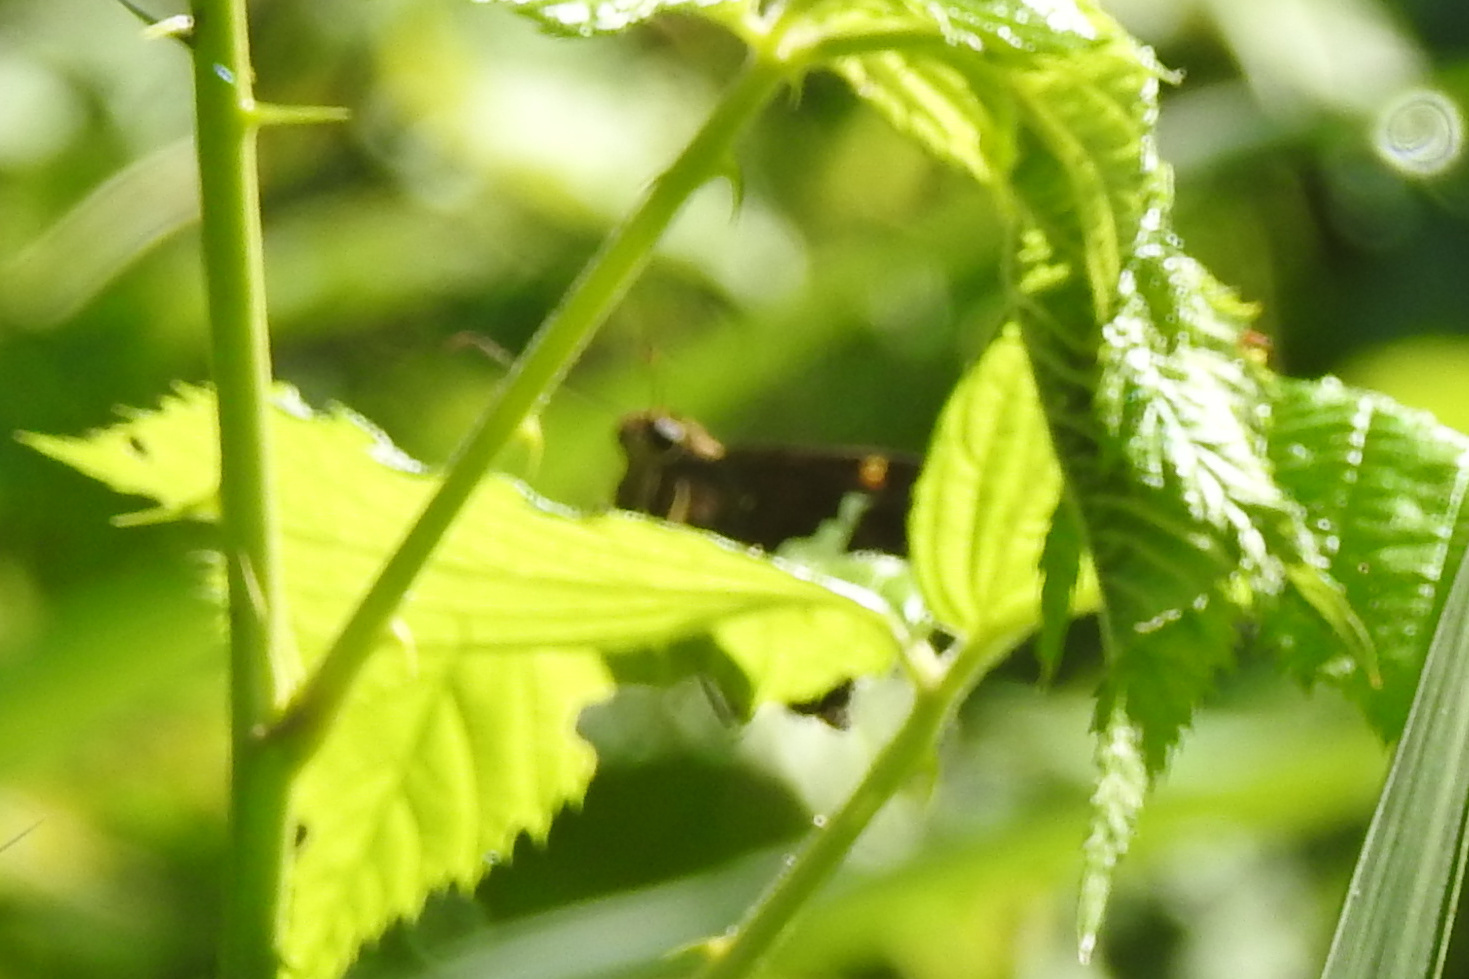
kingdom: Animalia
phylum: Arthropoda
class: Insecta
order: Lepidoptera
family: Hesperiidae
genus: Epargyreus
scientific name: Epargyreus clarus
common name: Silver-spotted skipper
